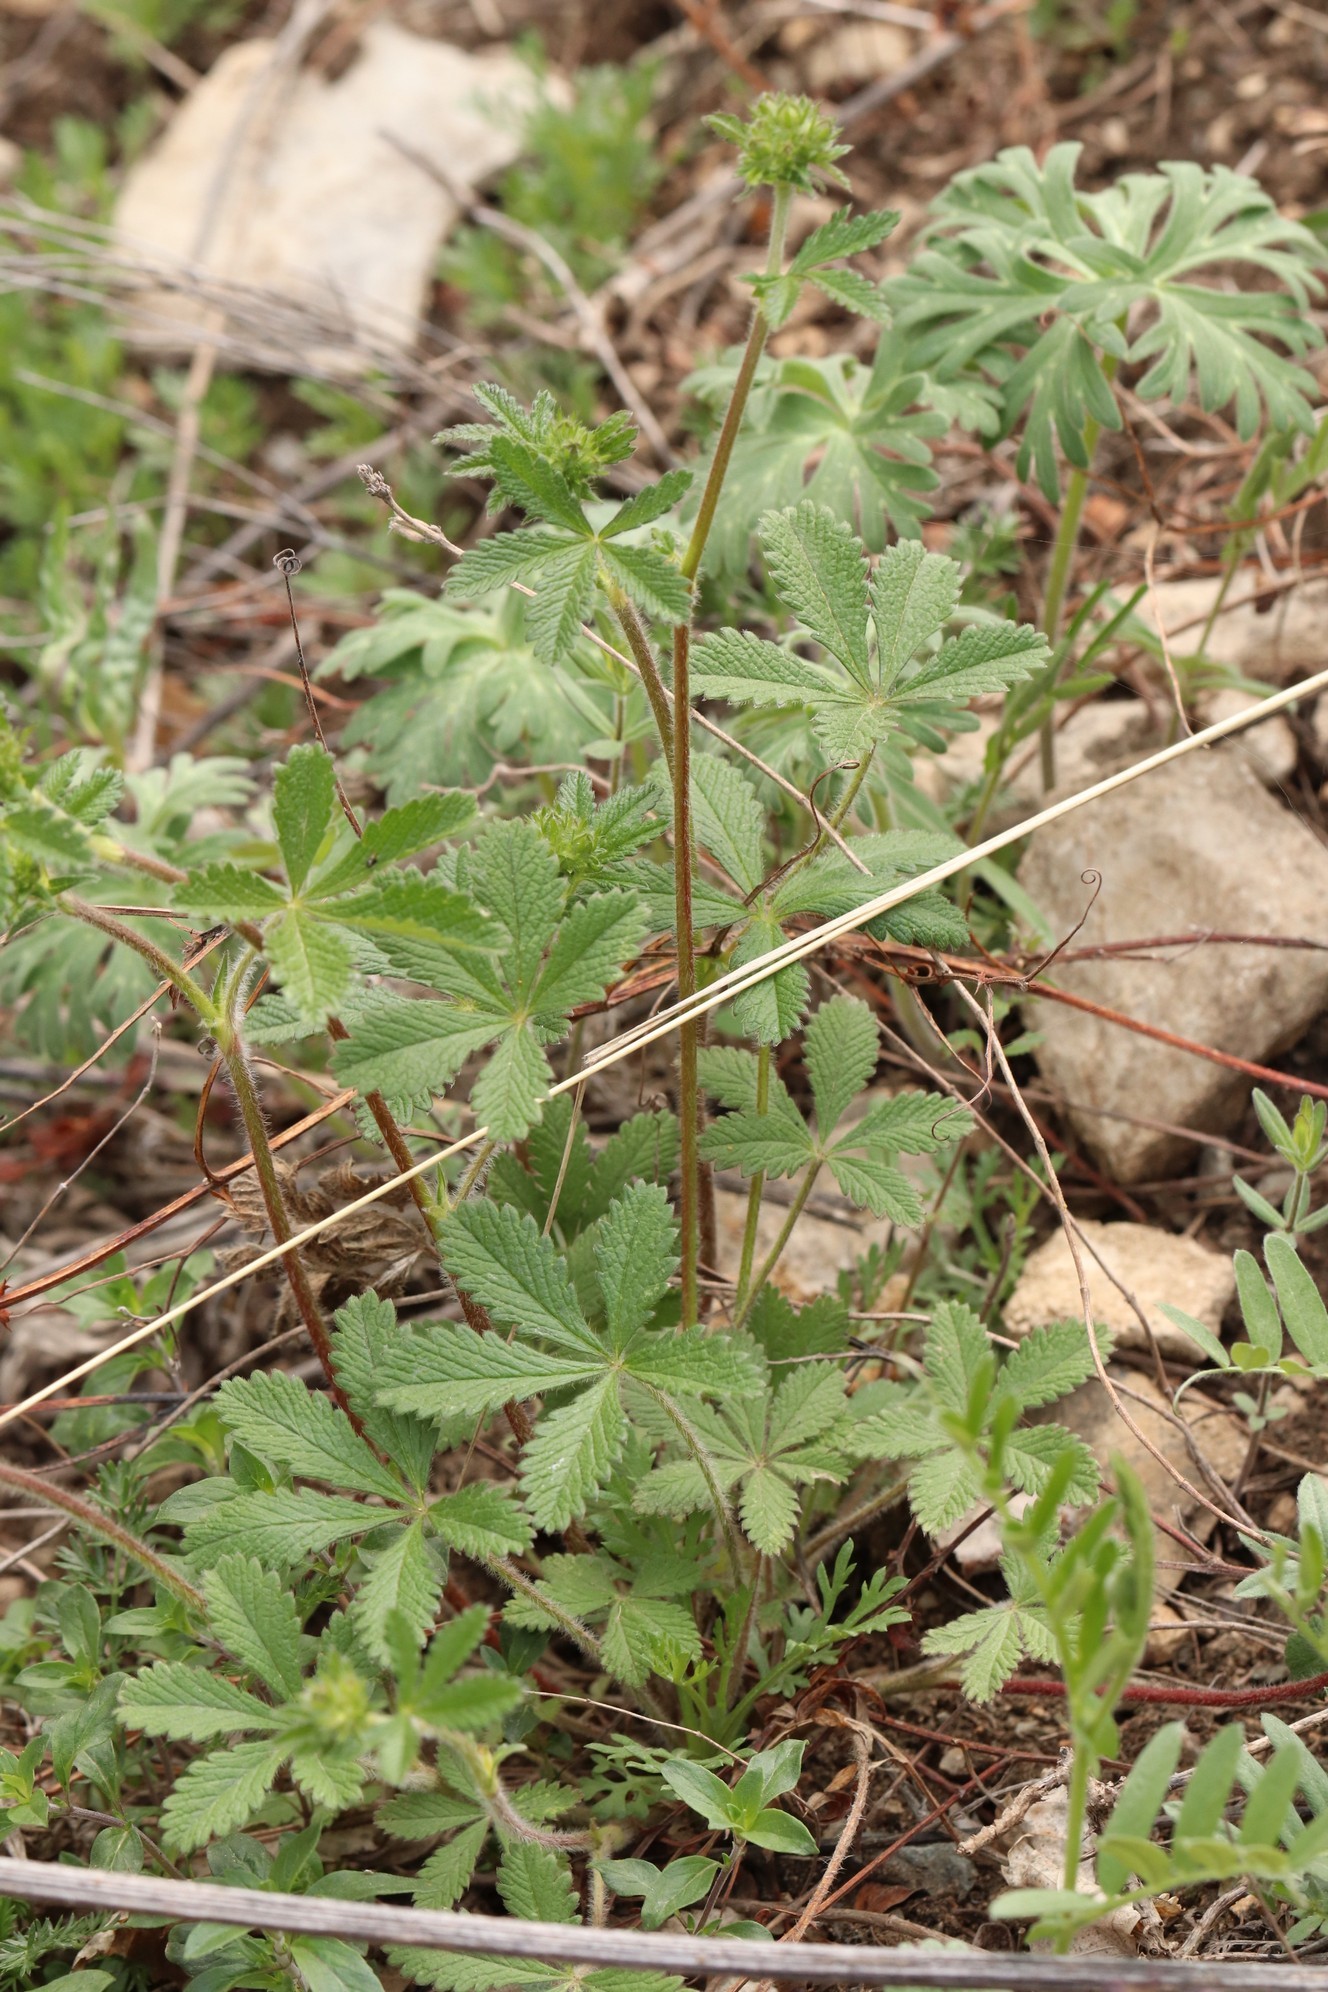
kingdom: Plantae
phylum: Tracheophyta
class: Magnoliopsida
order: Rosales
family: Rosaceae
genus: Potentilla
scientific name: Potentilla chrysantha
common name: Thuringian cinquefoil
